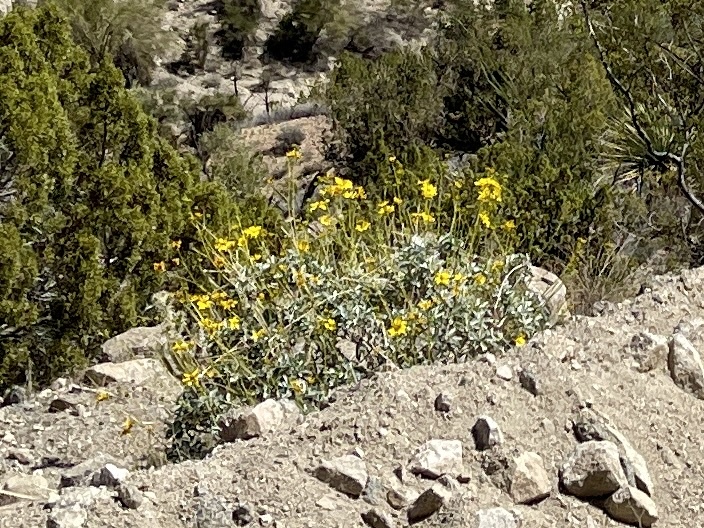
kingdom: Plantae
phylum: Tracheophyta
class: Magnoliopsida
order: Asterales
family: Asteraceae
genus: Encelia
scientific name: Encelia farinosa
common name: Brittlebush
